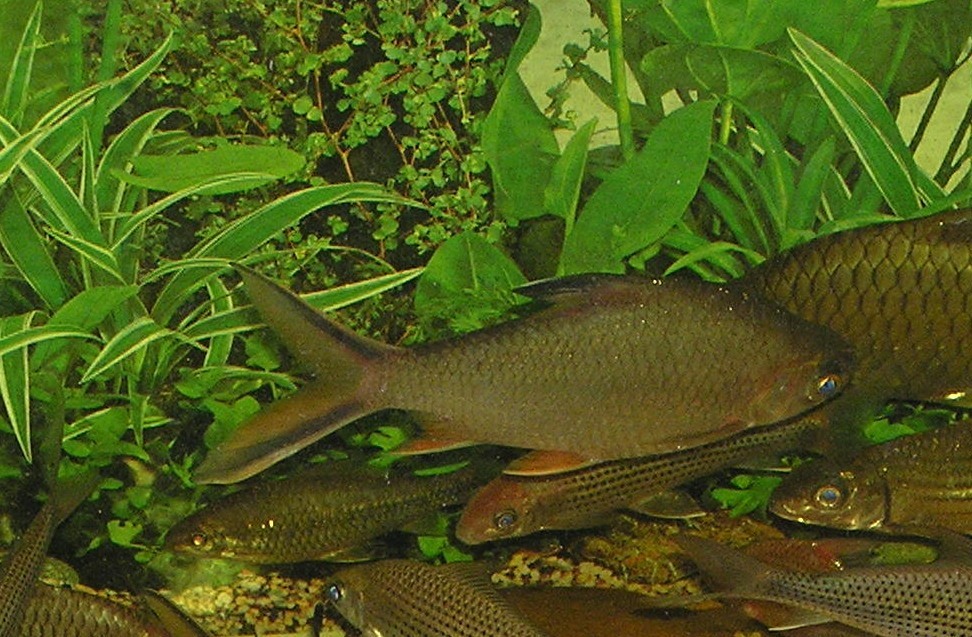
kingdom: Animalia
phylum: Chordata
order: Cypriniformes
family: Cyprinidae
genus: Barbonymus
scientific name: Barbonymus schwanefeldii
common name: Tinfoil barb
